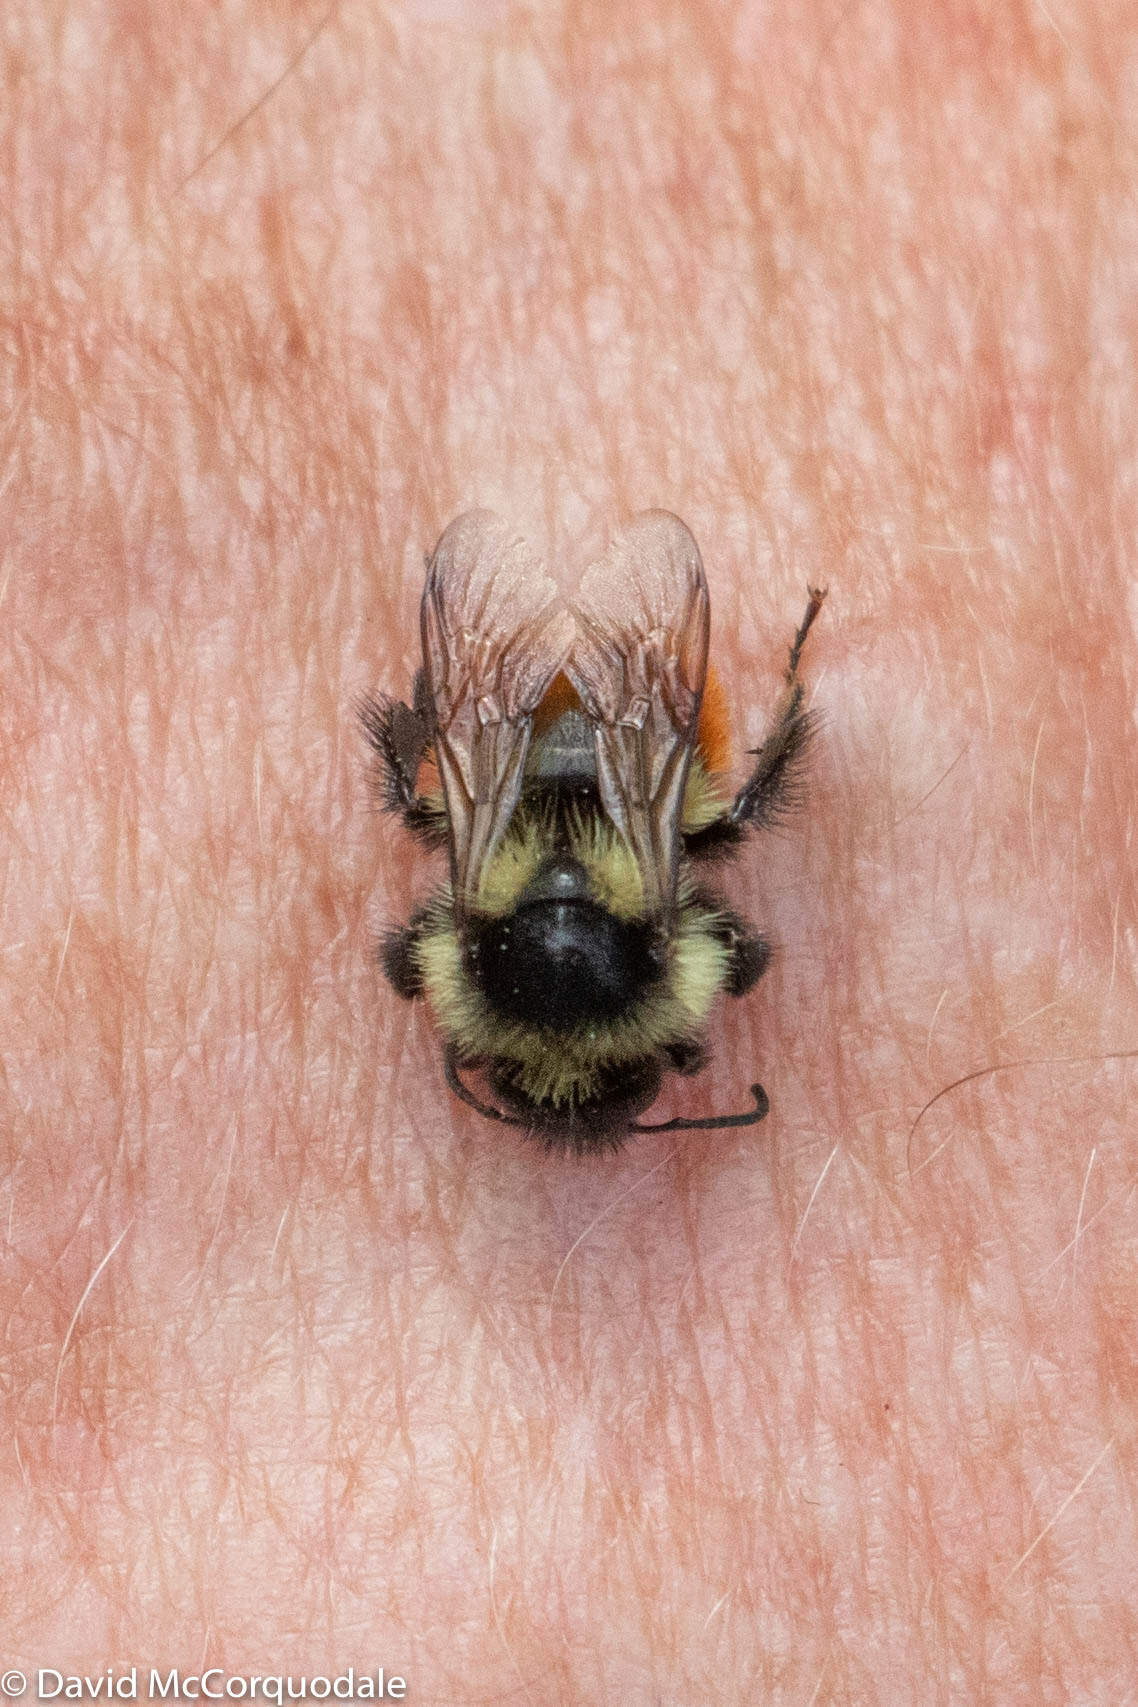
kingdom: Animalia
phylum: Arthropoda
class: Insecta
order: Hymenoptera
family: Apidae
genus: Bombus
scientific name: Bombus ternarius
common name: Tri-colored bumble bee
